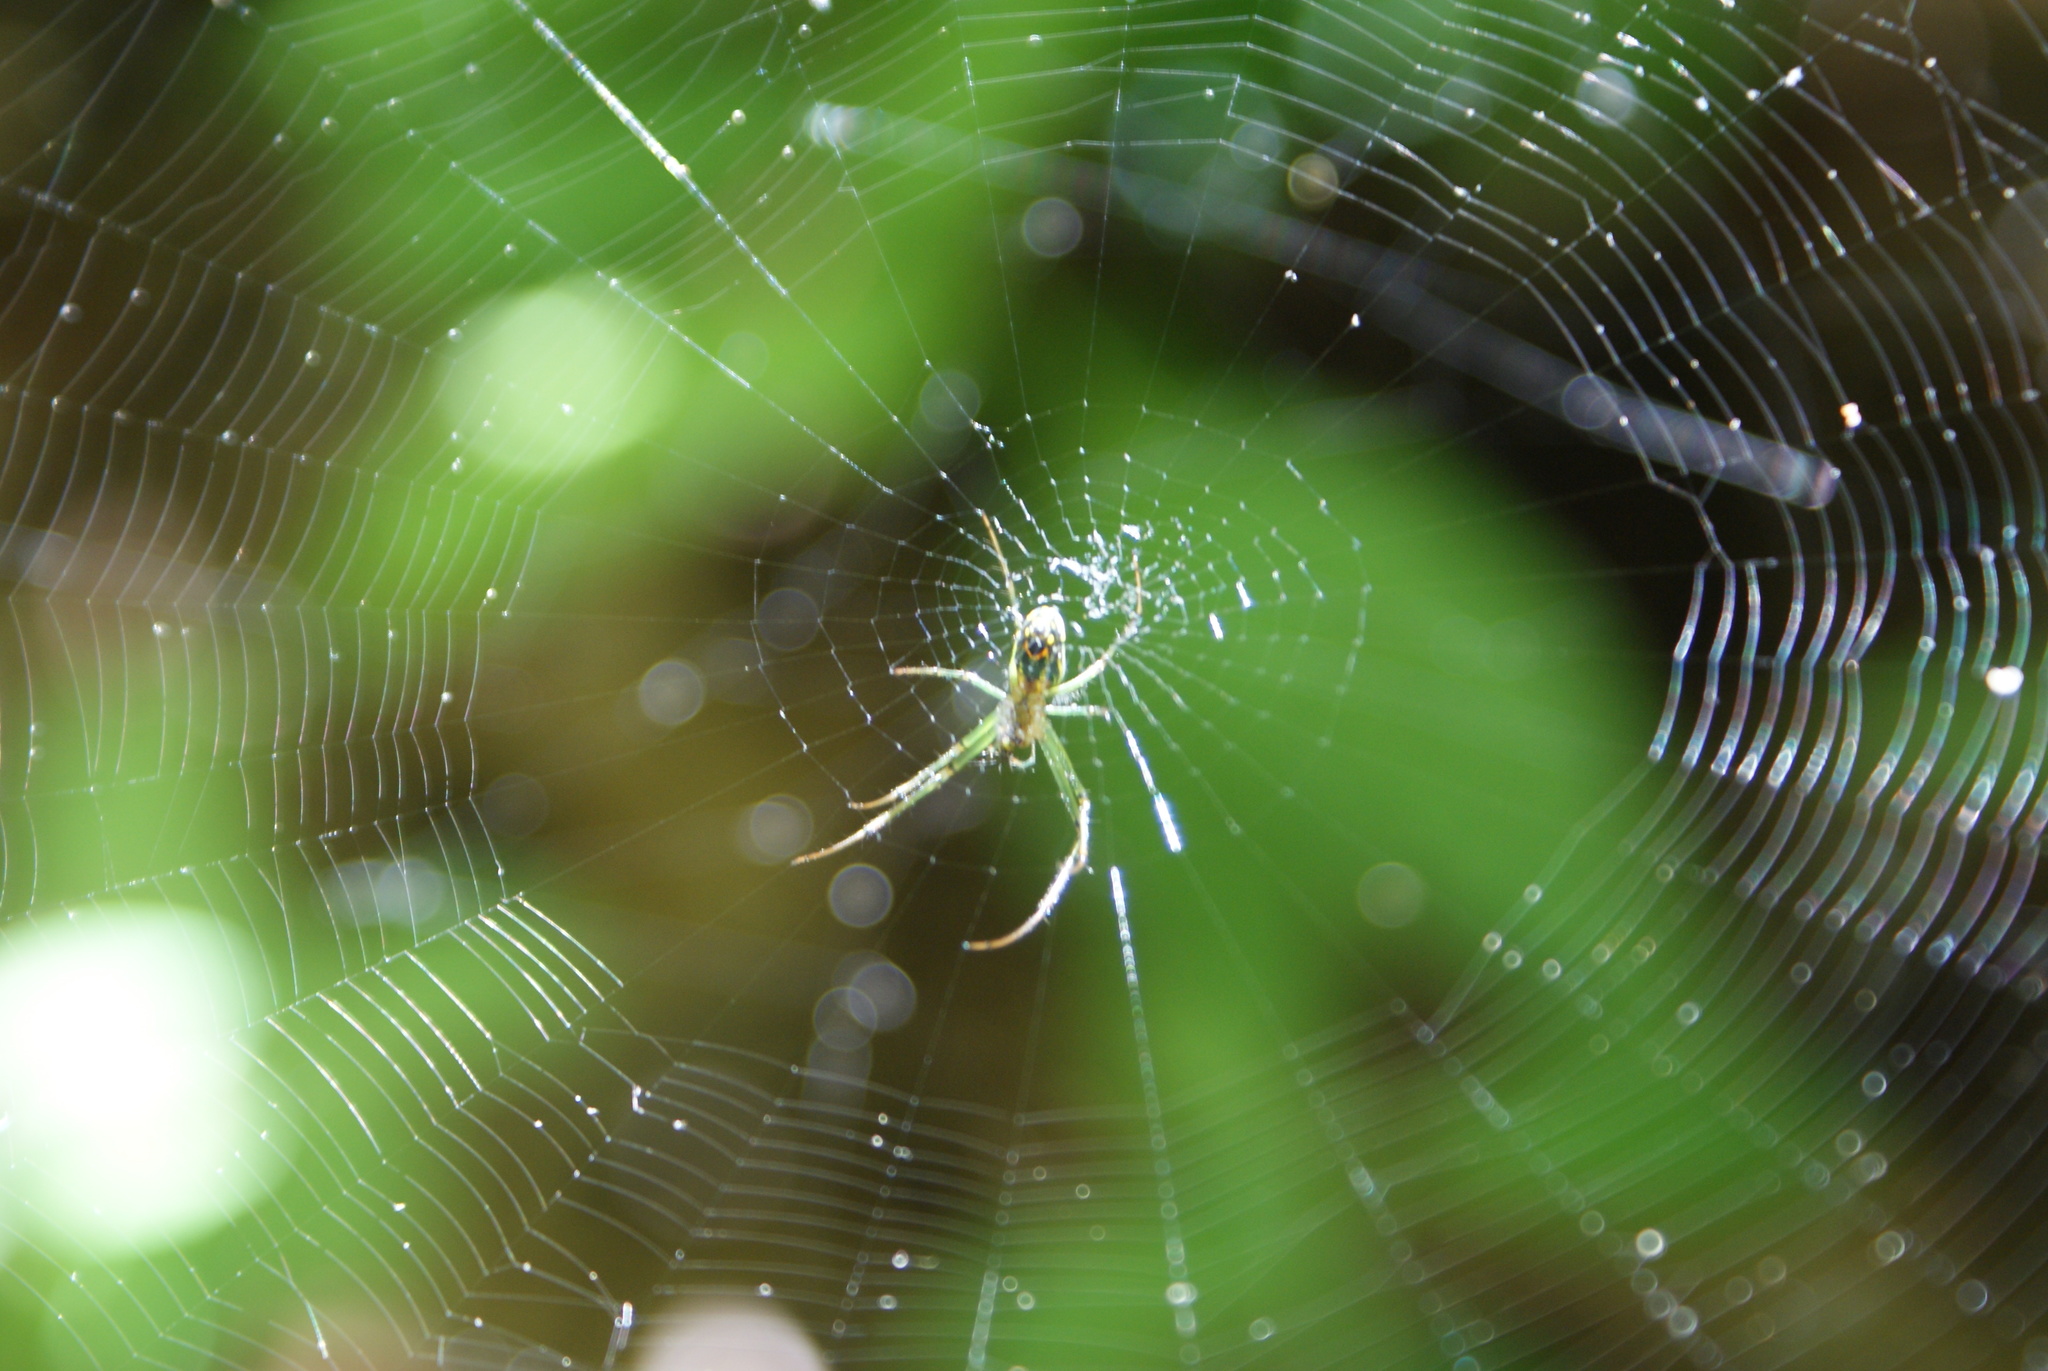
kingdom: Animalia
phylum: Arthropoda
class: Arachnida
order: Araneae
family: Tetragnathidae
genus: Leucauge
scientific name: Leucauge venusta
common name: Longjawed orb weavers
